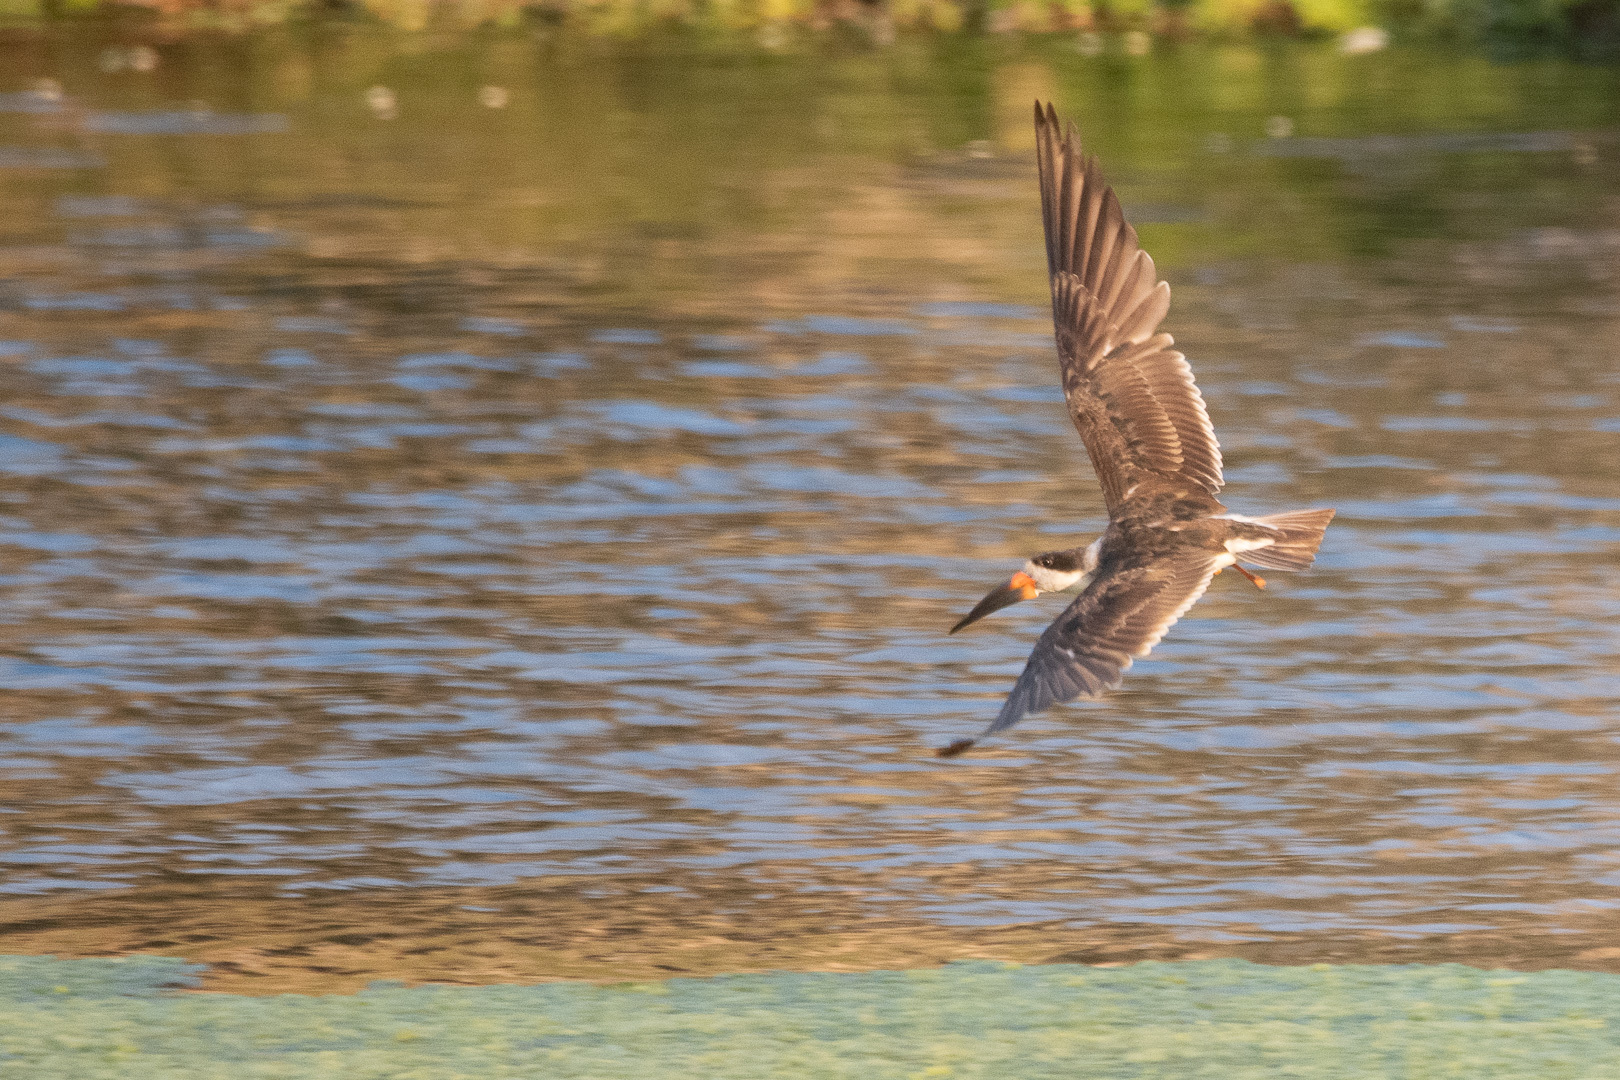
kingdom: Animalia
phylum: Chordata
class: Aves
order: Charadriiformes
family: Laridae
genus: Rynchops
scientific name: Rynchops niger
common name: Black skimmer
